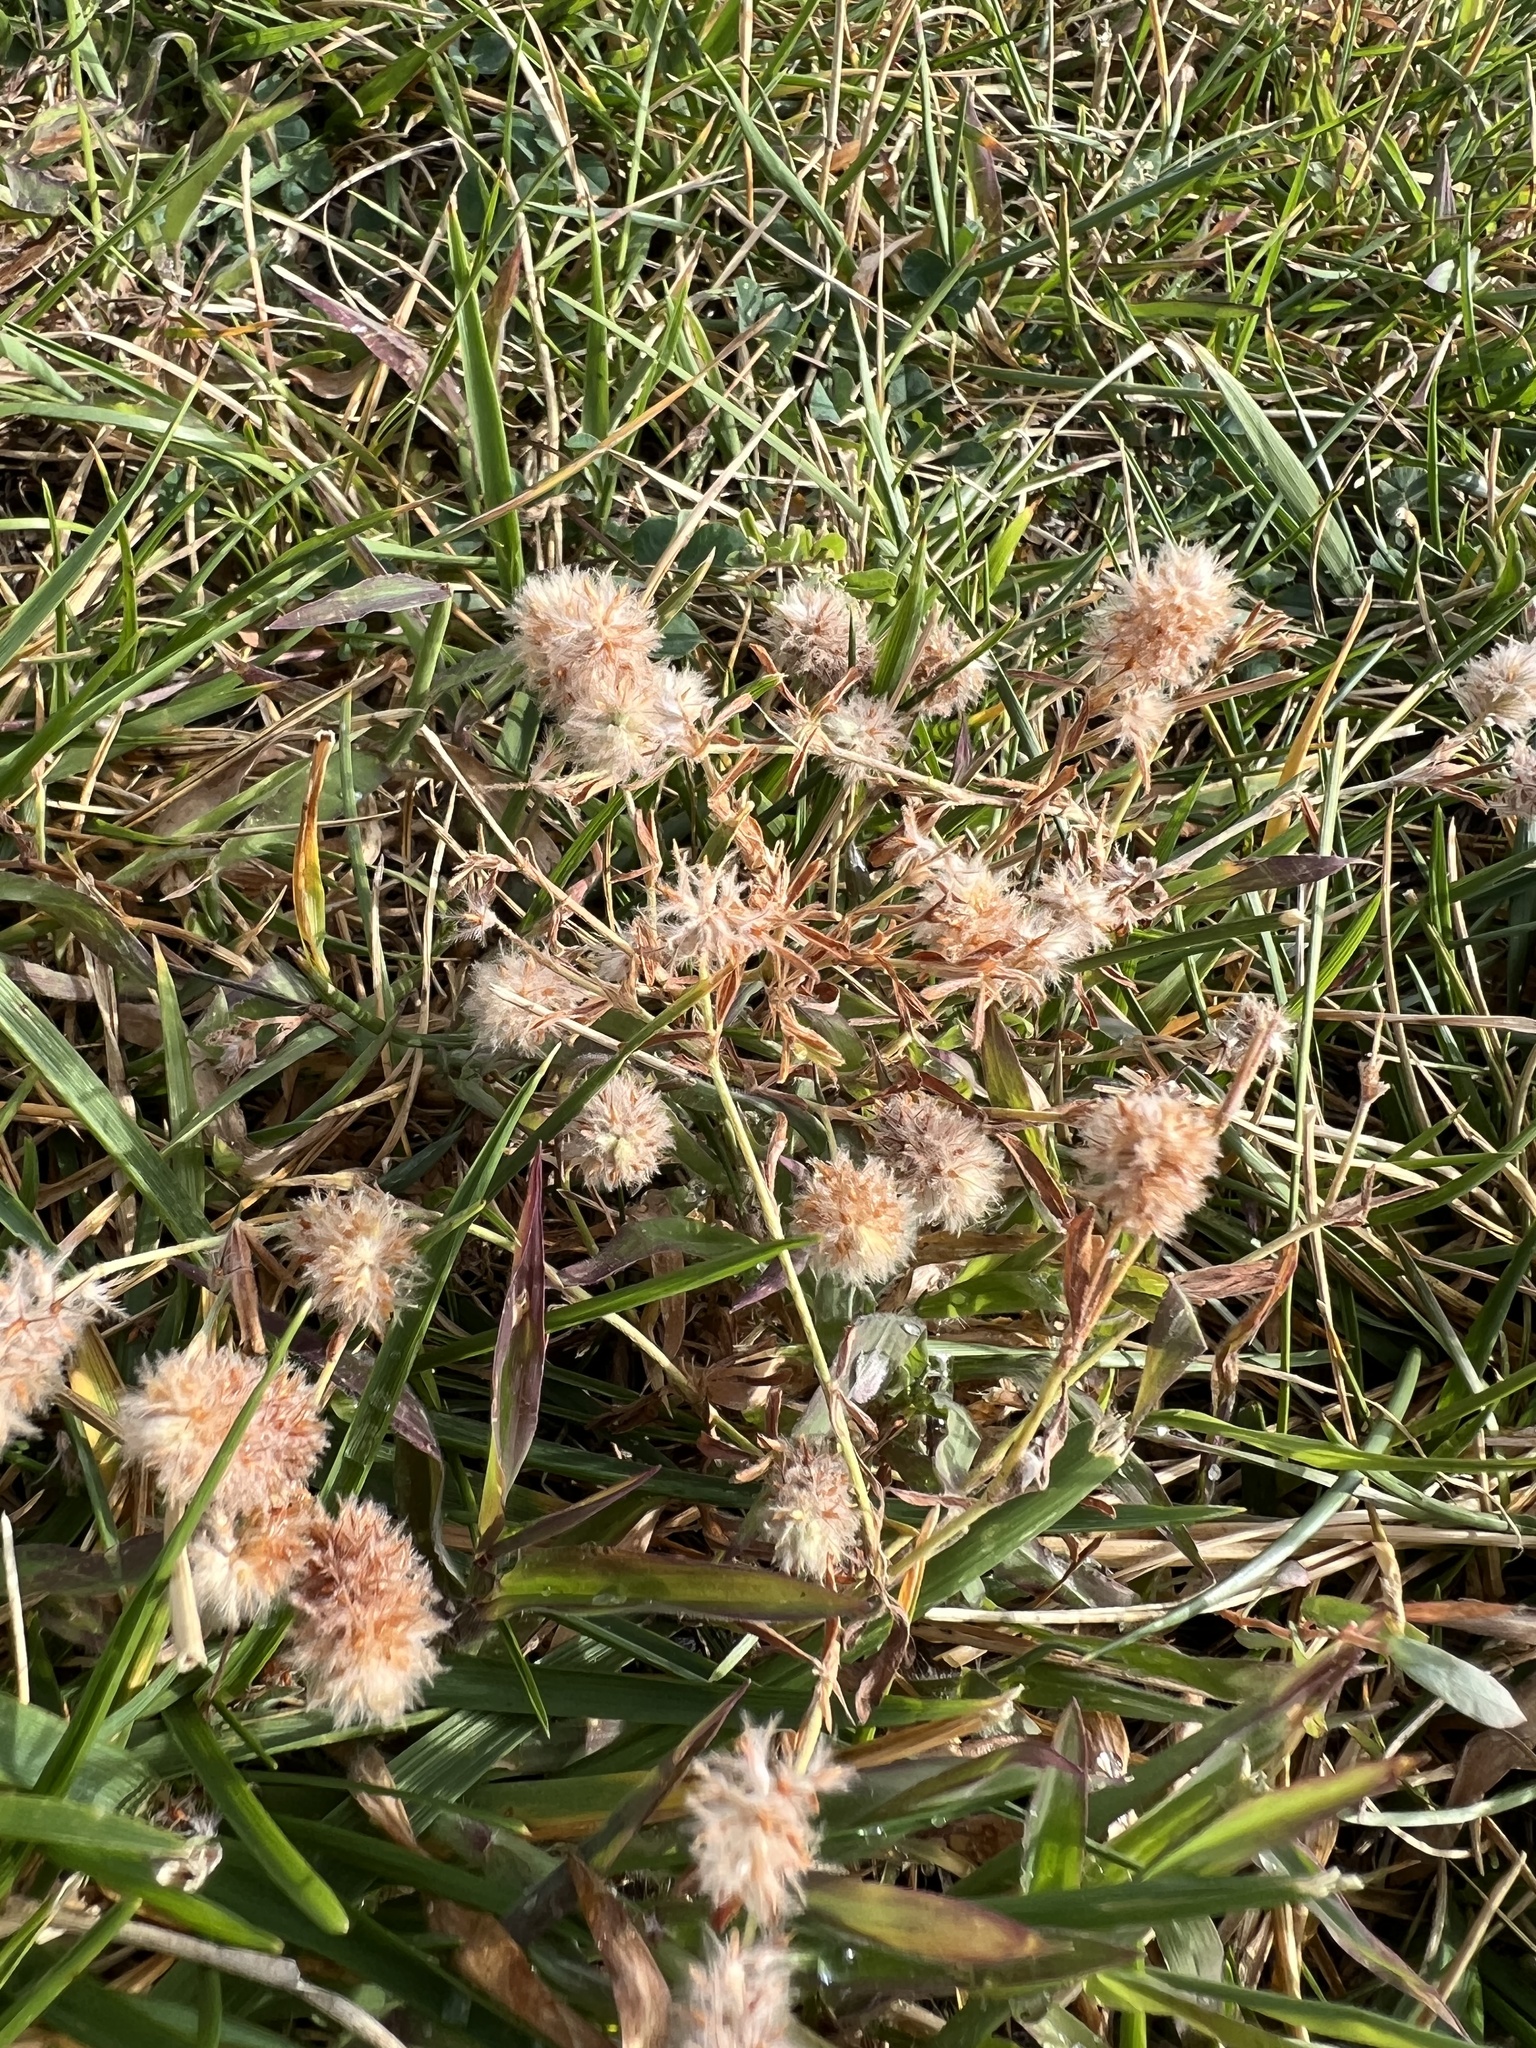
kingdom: Plantae
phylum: Tracheophyta
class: Magnoliopsida
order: Fabales
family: Fabaceae
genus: Trifolium
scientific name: Trifolium arvense
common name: Hare's-foot clover
